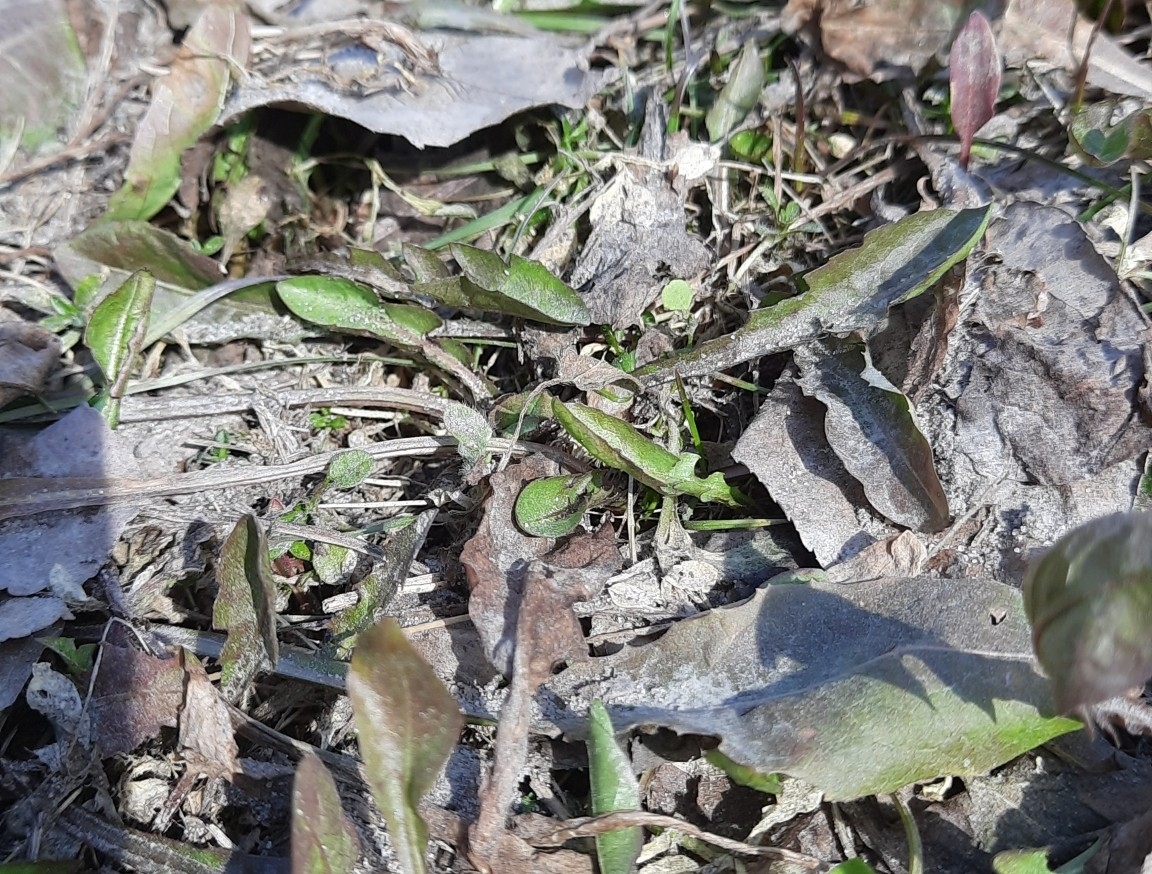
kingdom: Plantae
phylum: Tracheophyta
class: Magnoliopsida
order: Asterales
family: Asteraceae
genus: Taraxacum
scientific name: Taraxacum officinale
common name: Common dandelion
